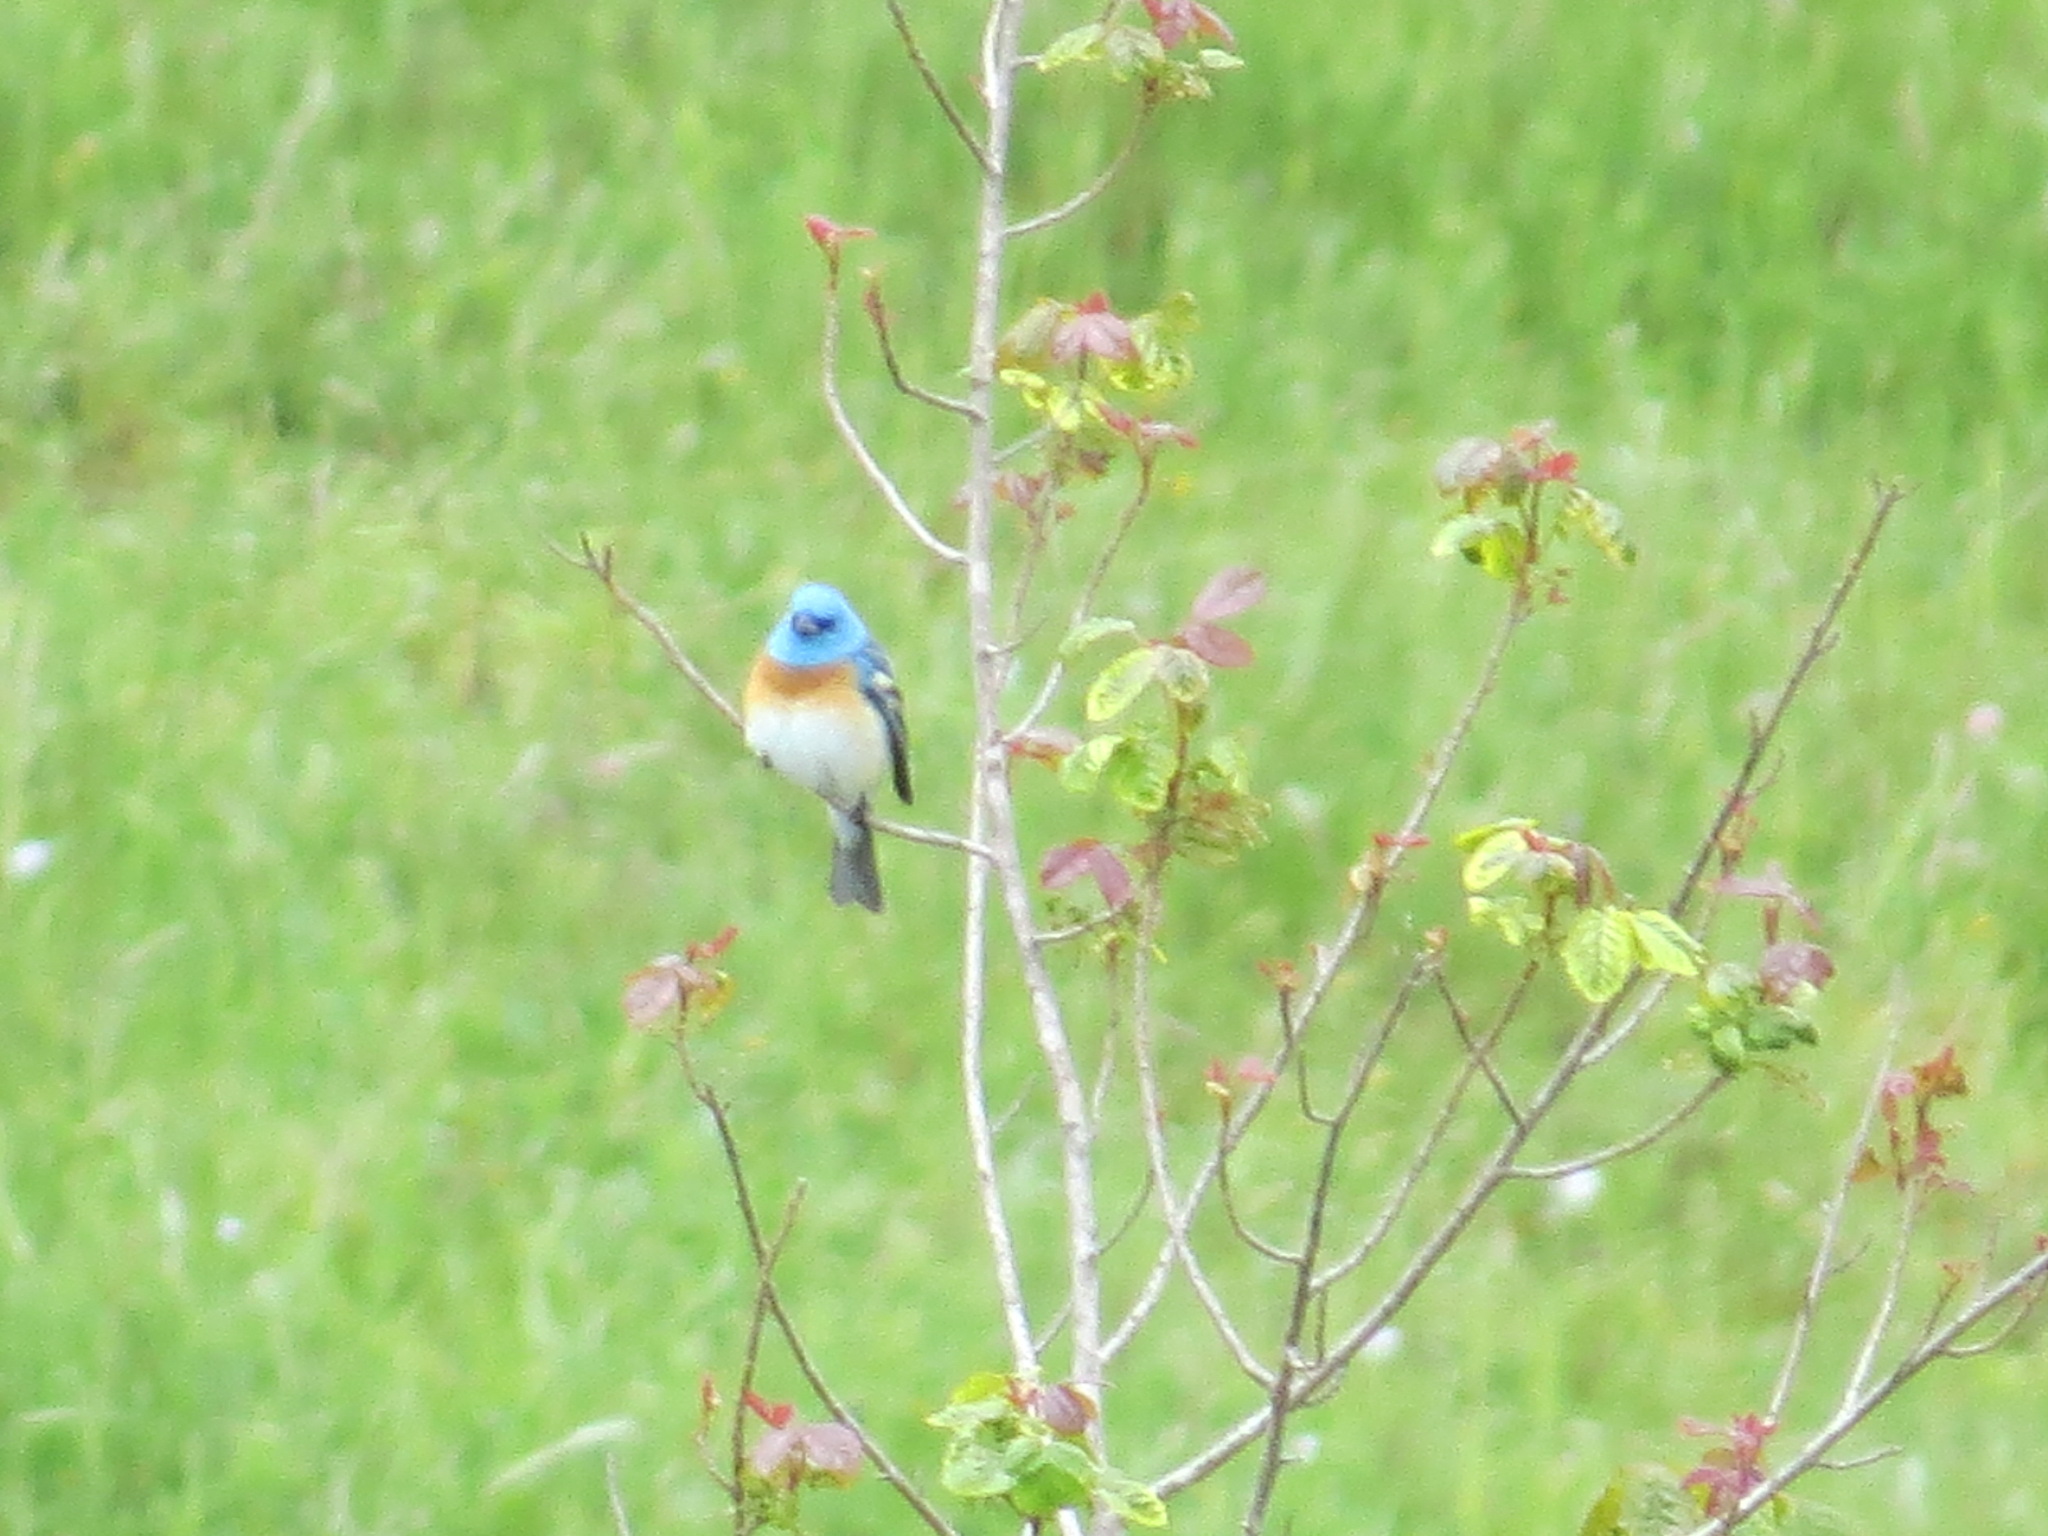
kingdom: Animalia
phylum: Chordata
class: Aves
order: Passeriformes
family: Cardinalidae
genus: Passerina
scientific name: Passerina amoena
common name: Lazuli bunting
